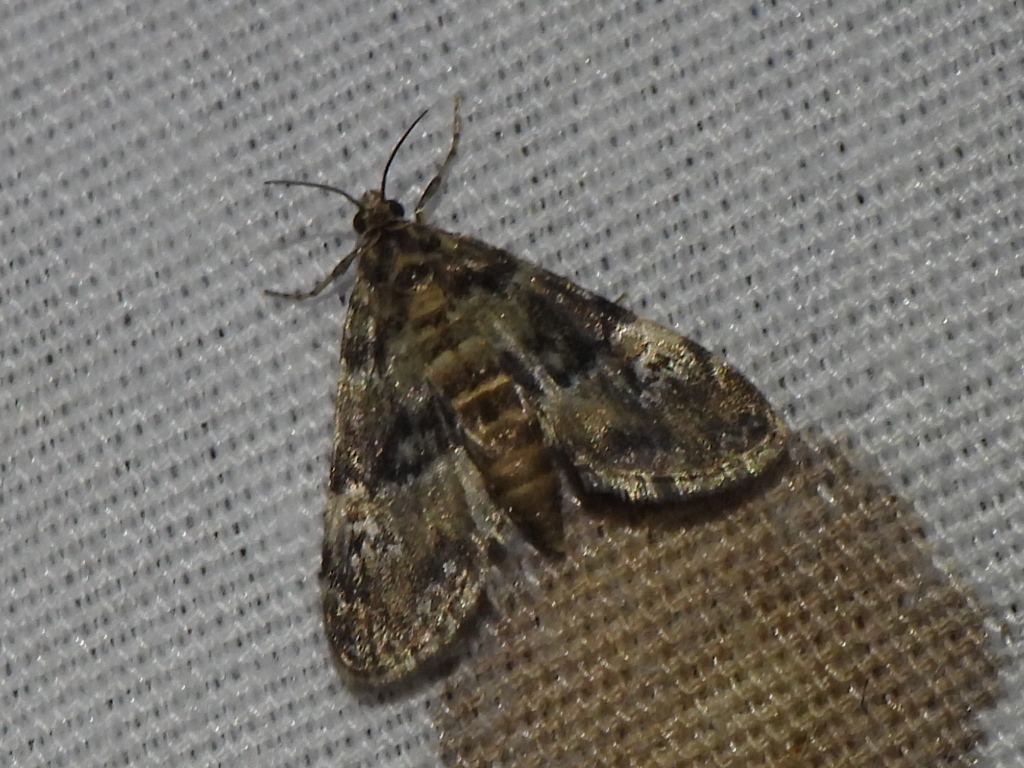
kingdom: Animalia
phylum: Arthropoda
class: Insecta
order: Lepidoptera
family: Crambidae
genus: Elophila
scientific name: Elophila obliteralis
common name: Waterlily leafcutter moth
